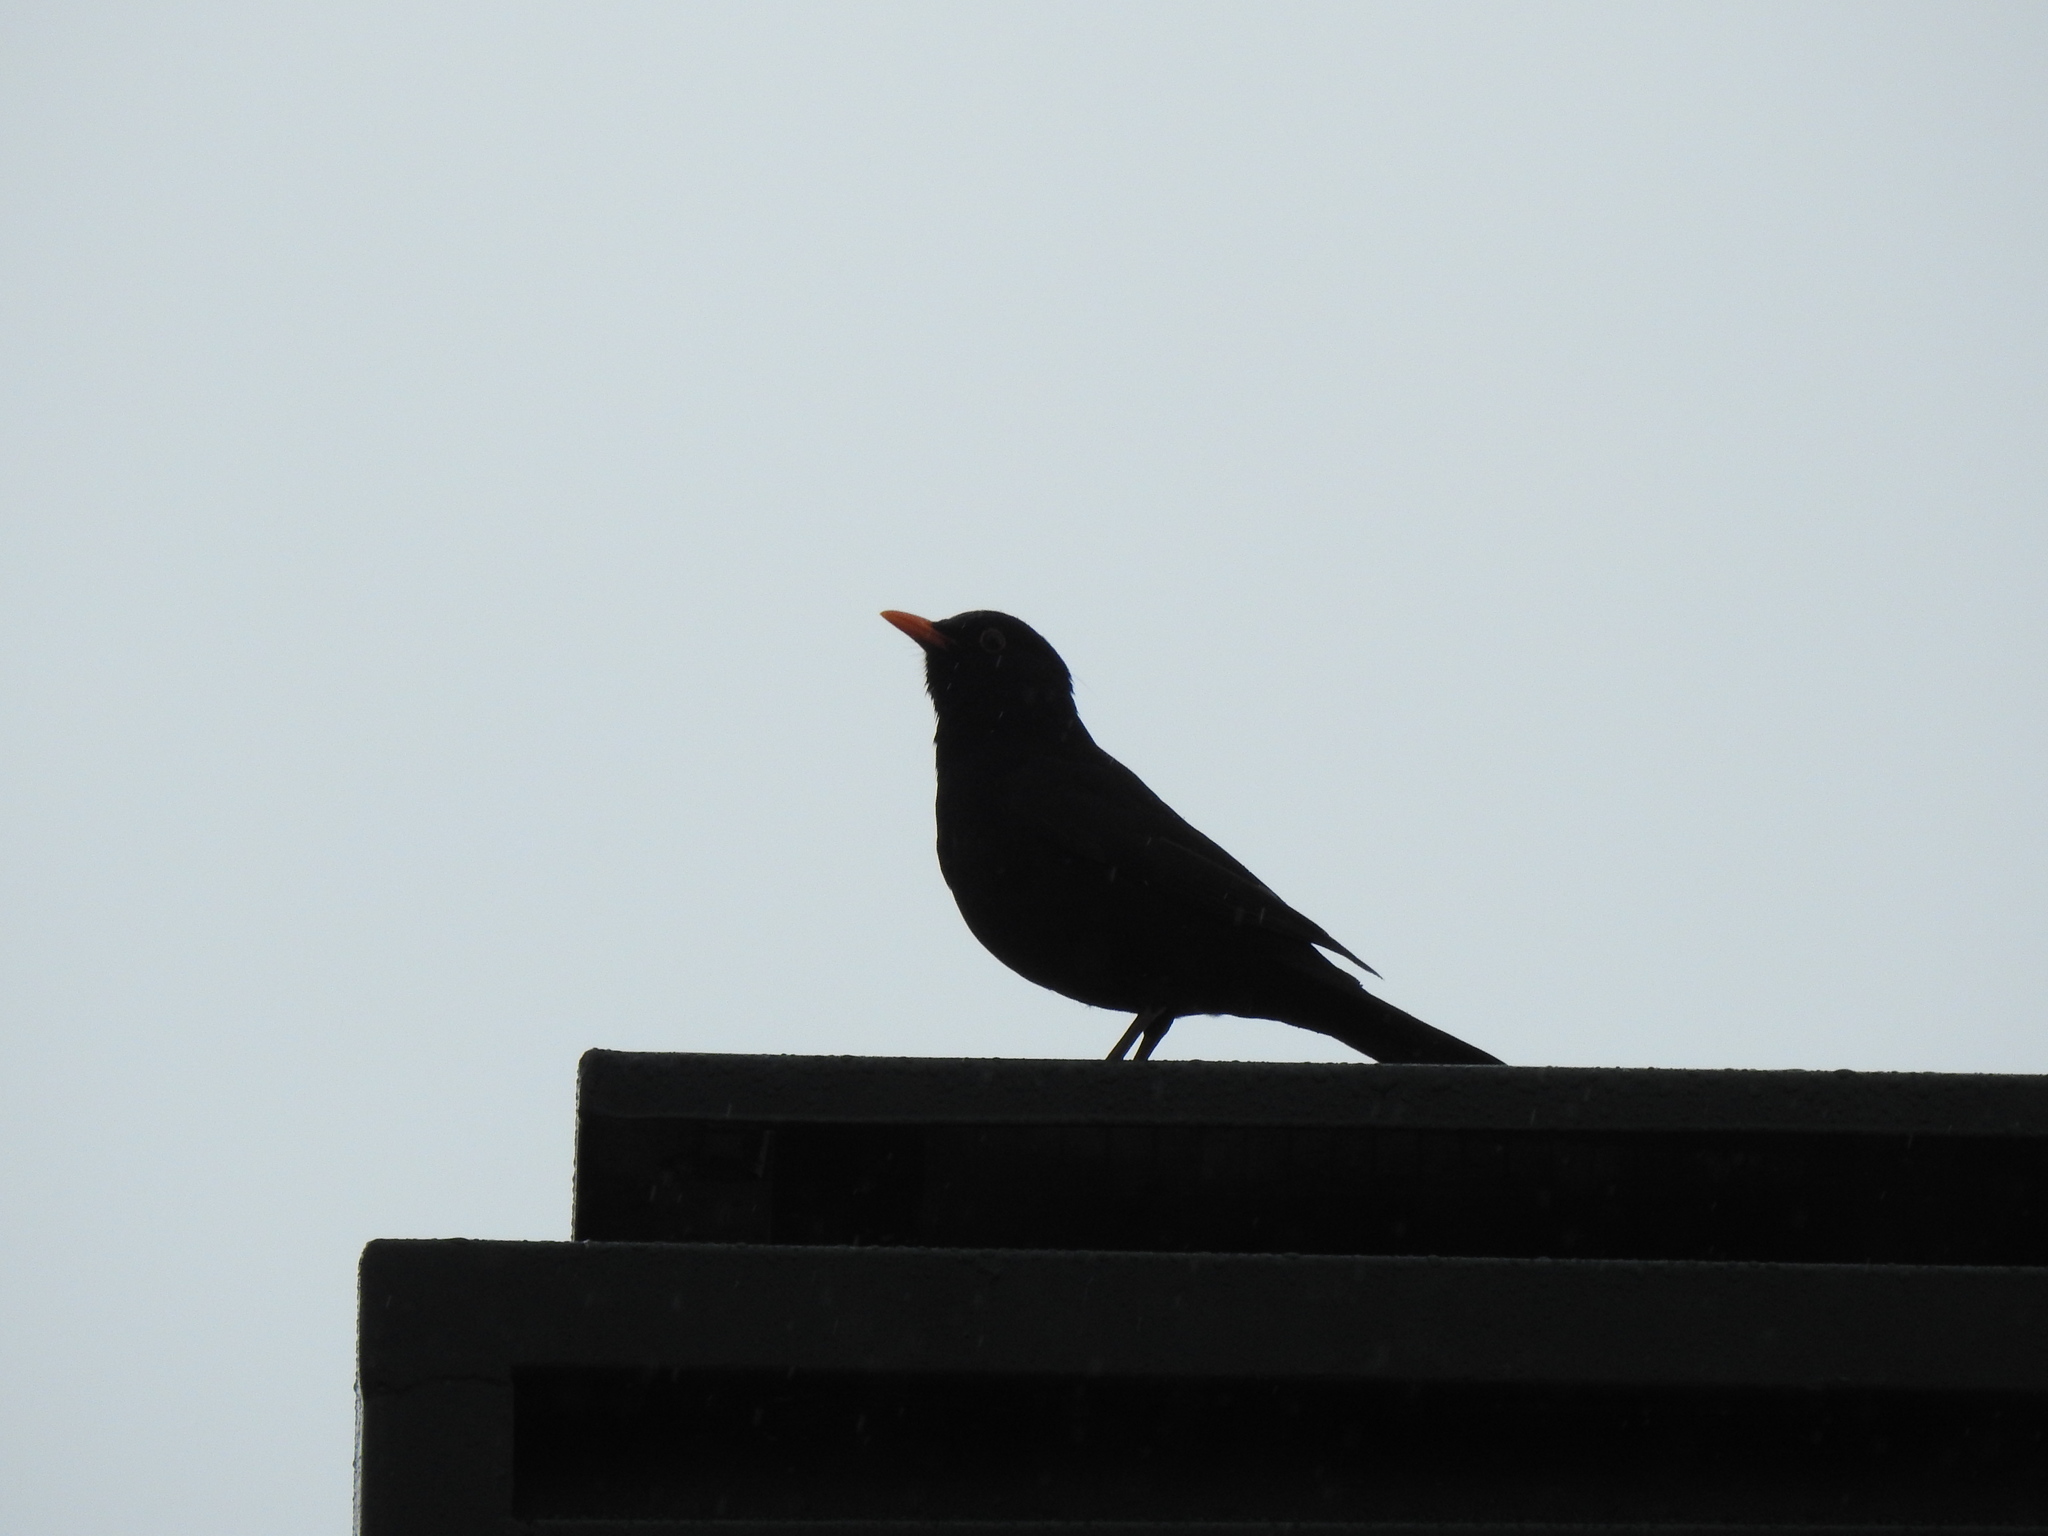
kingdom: Animalia
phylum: Chordata
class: Aves
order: Passeriformes
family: Turdidae
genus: Turdus
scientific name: Turdus merula
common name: Common blackbird
